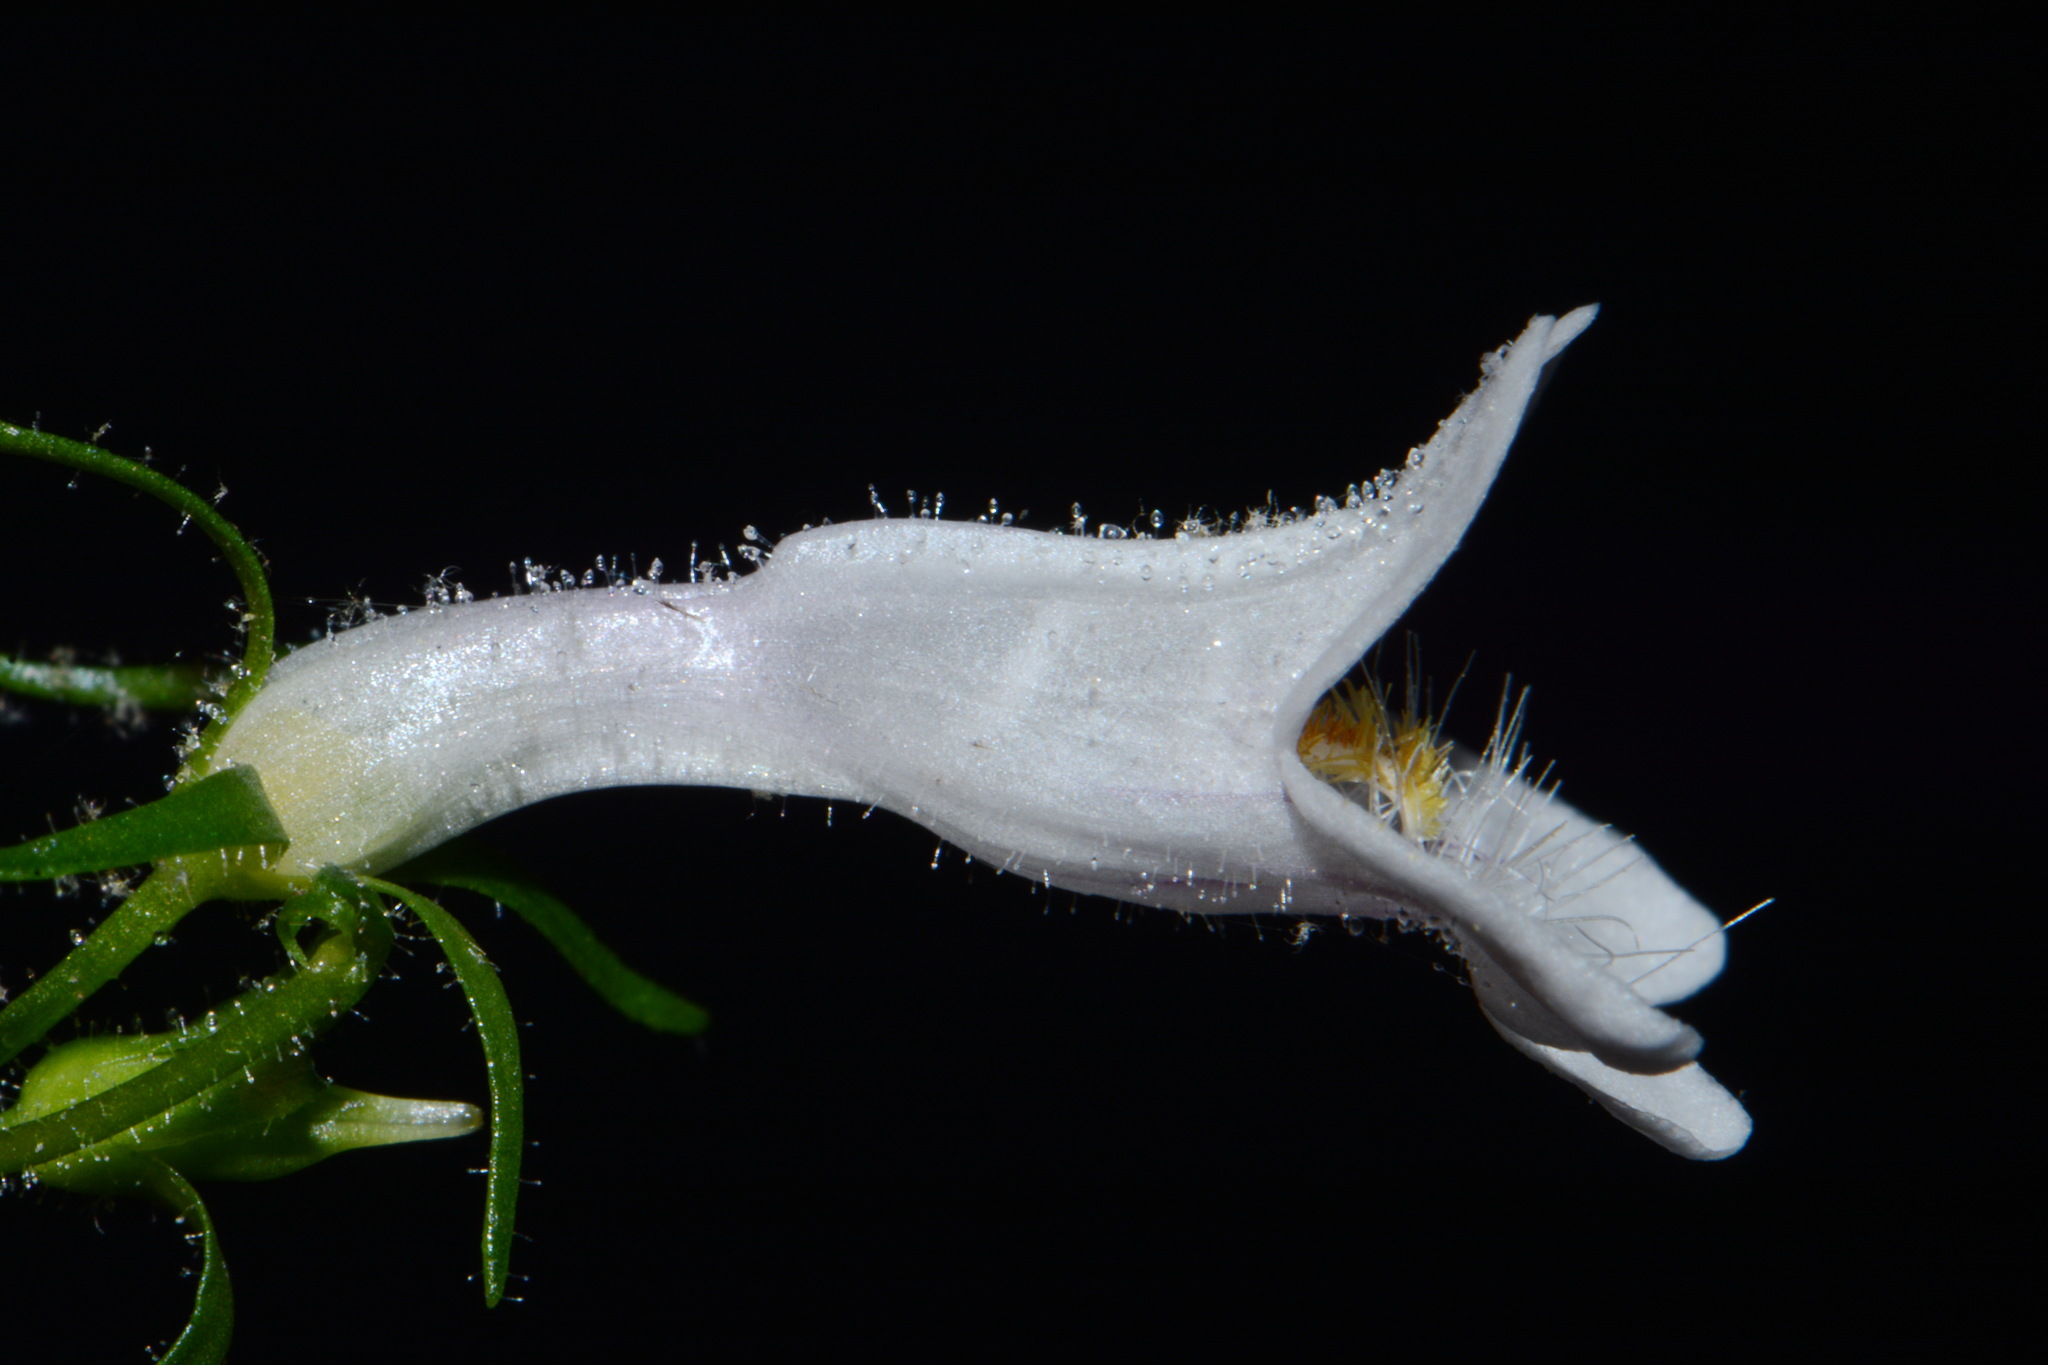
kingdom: Plantae
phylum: Tracheophyta
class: Magnoliopsida
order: Lamiales
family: Plantaginaceae
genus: Penstemon
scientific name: Penstemon kralii
